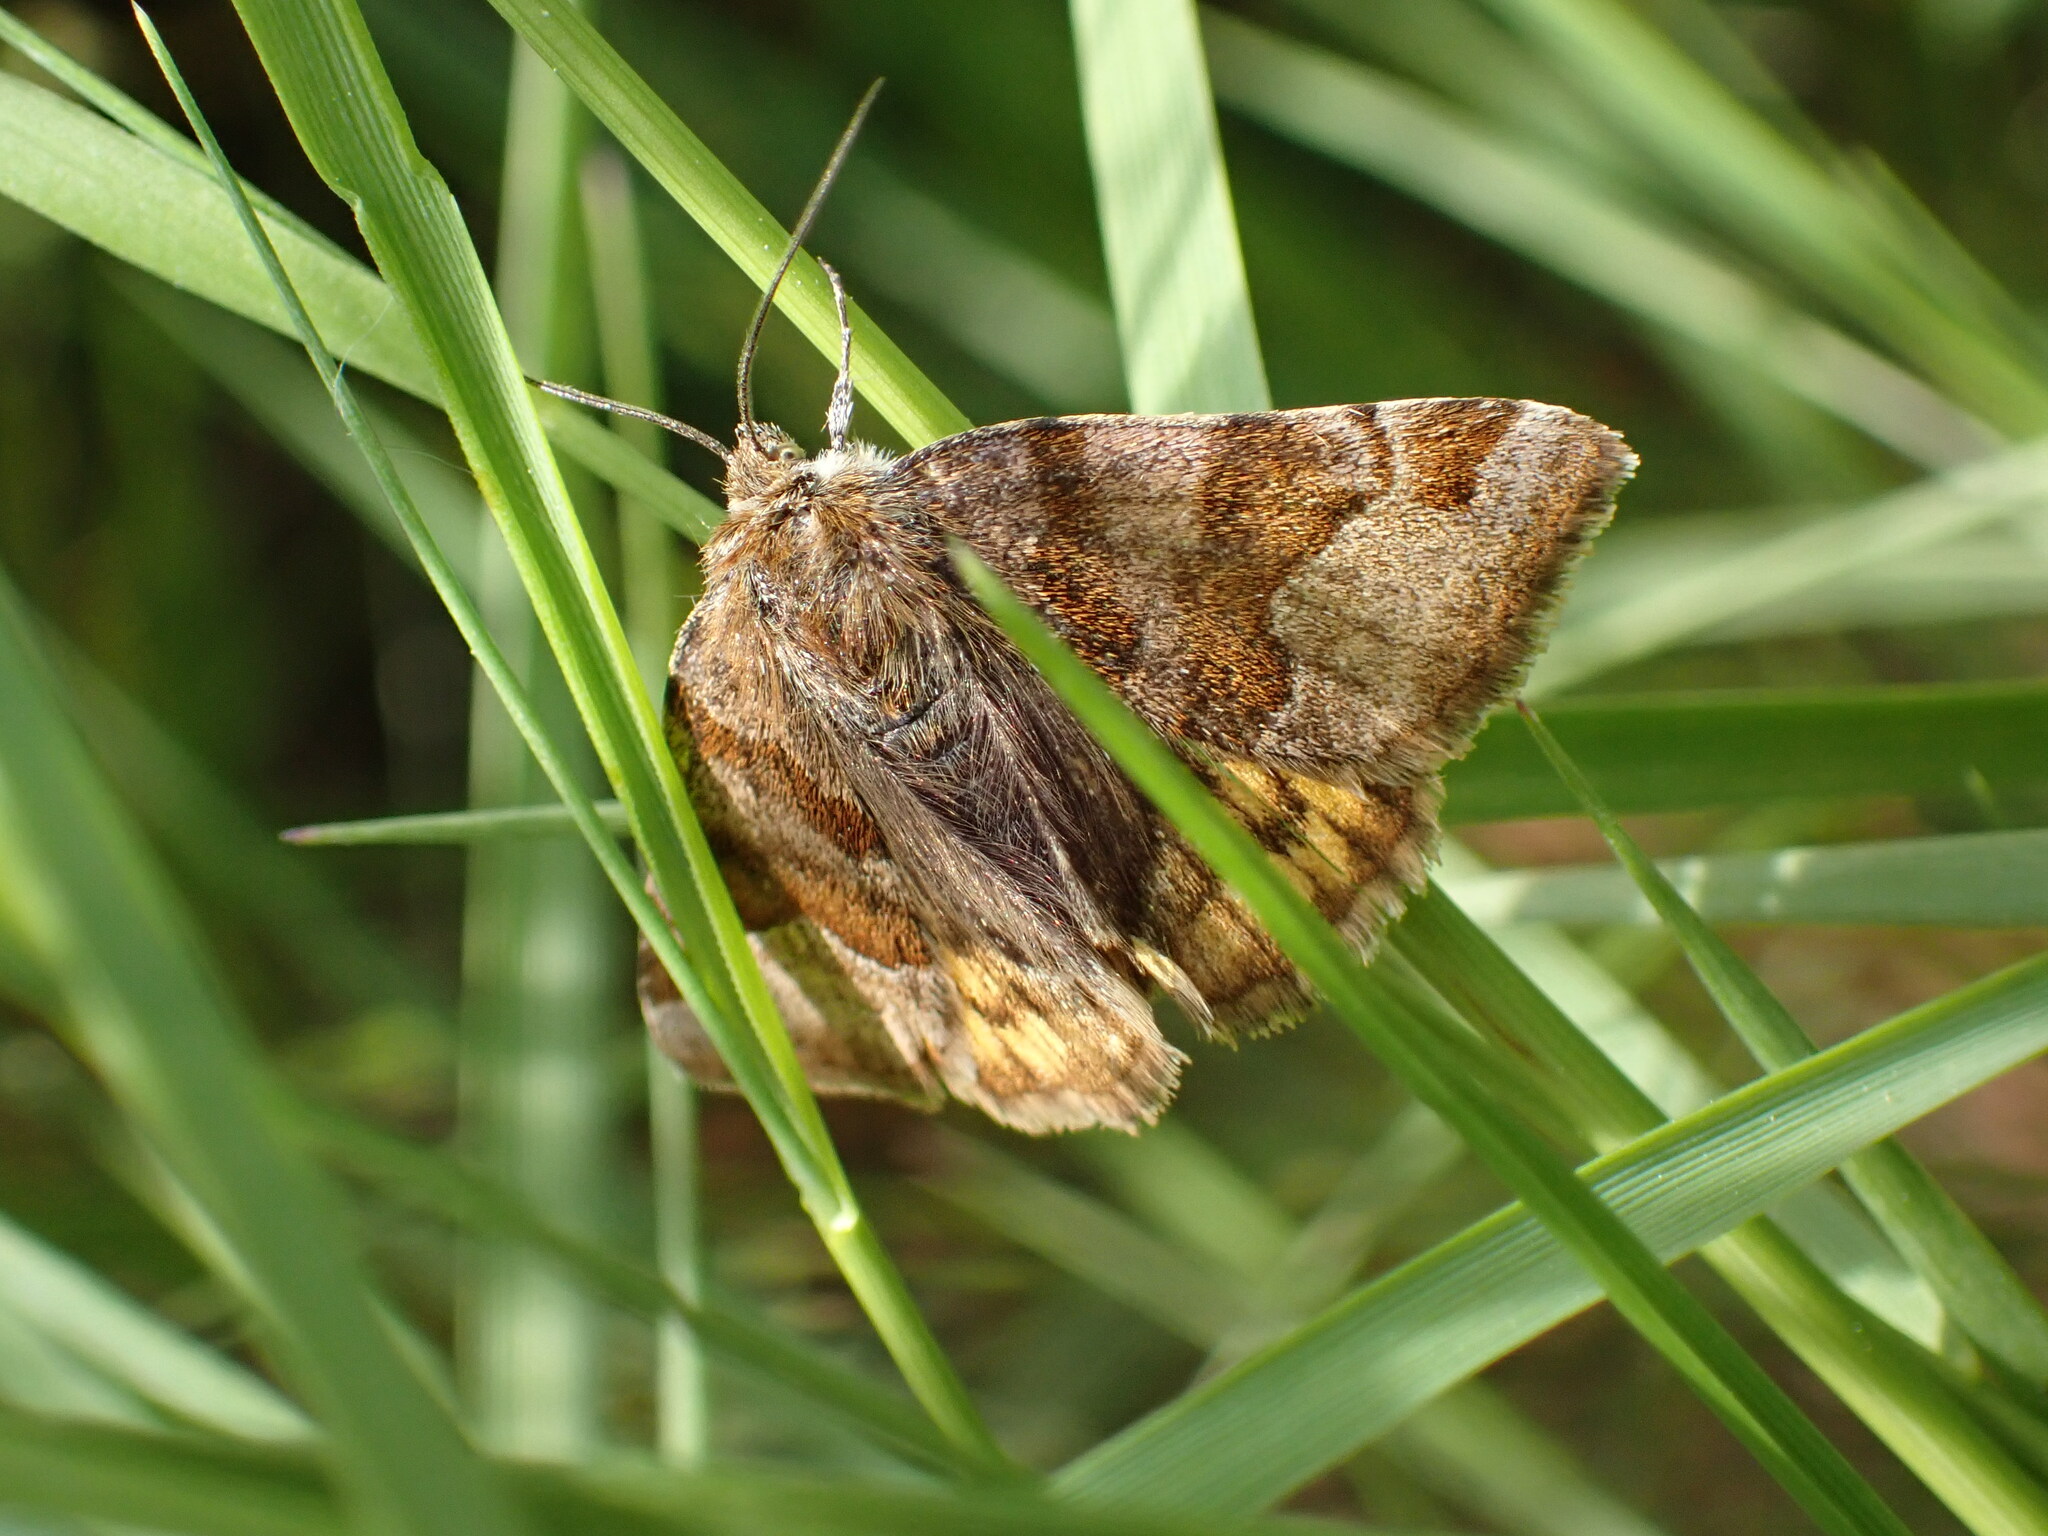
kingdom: Animalia
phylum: Arthropoda
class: Insecta
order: Lepidoptera
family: Erebidae
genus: Euclidia
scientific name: Euclidia glyphica
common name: Burnet companion
